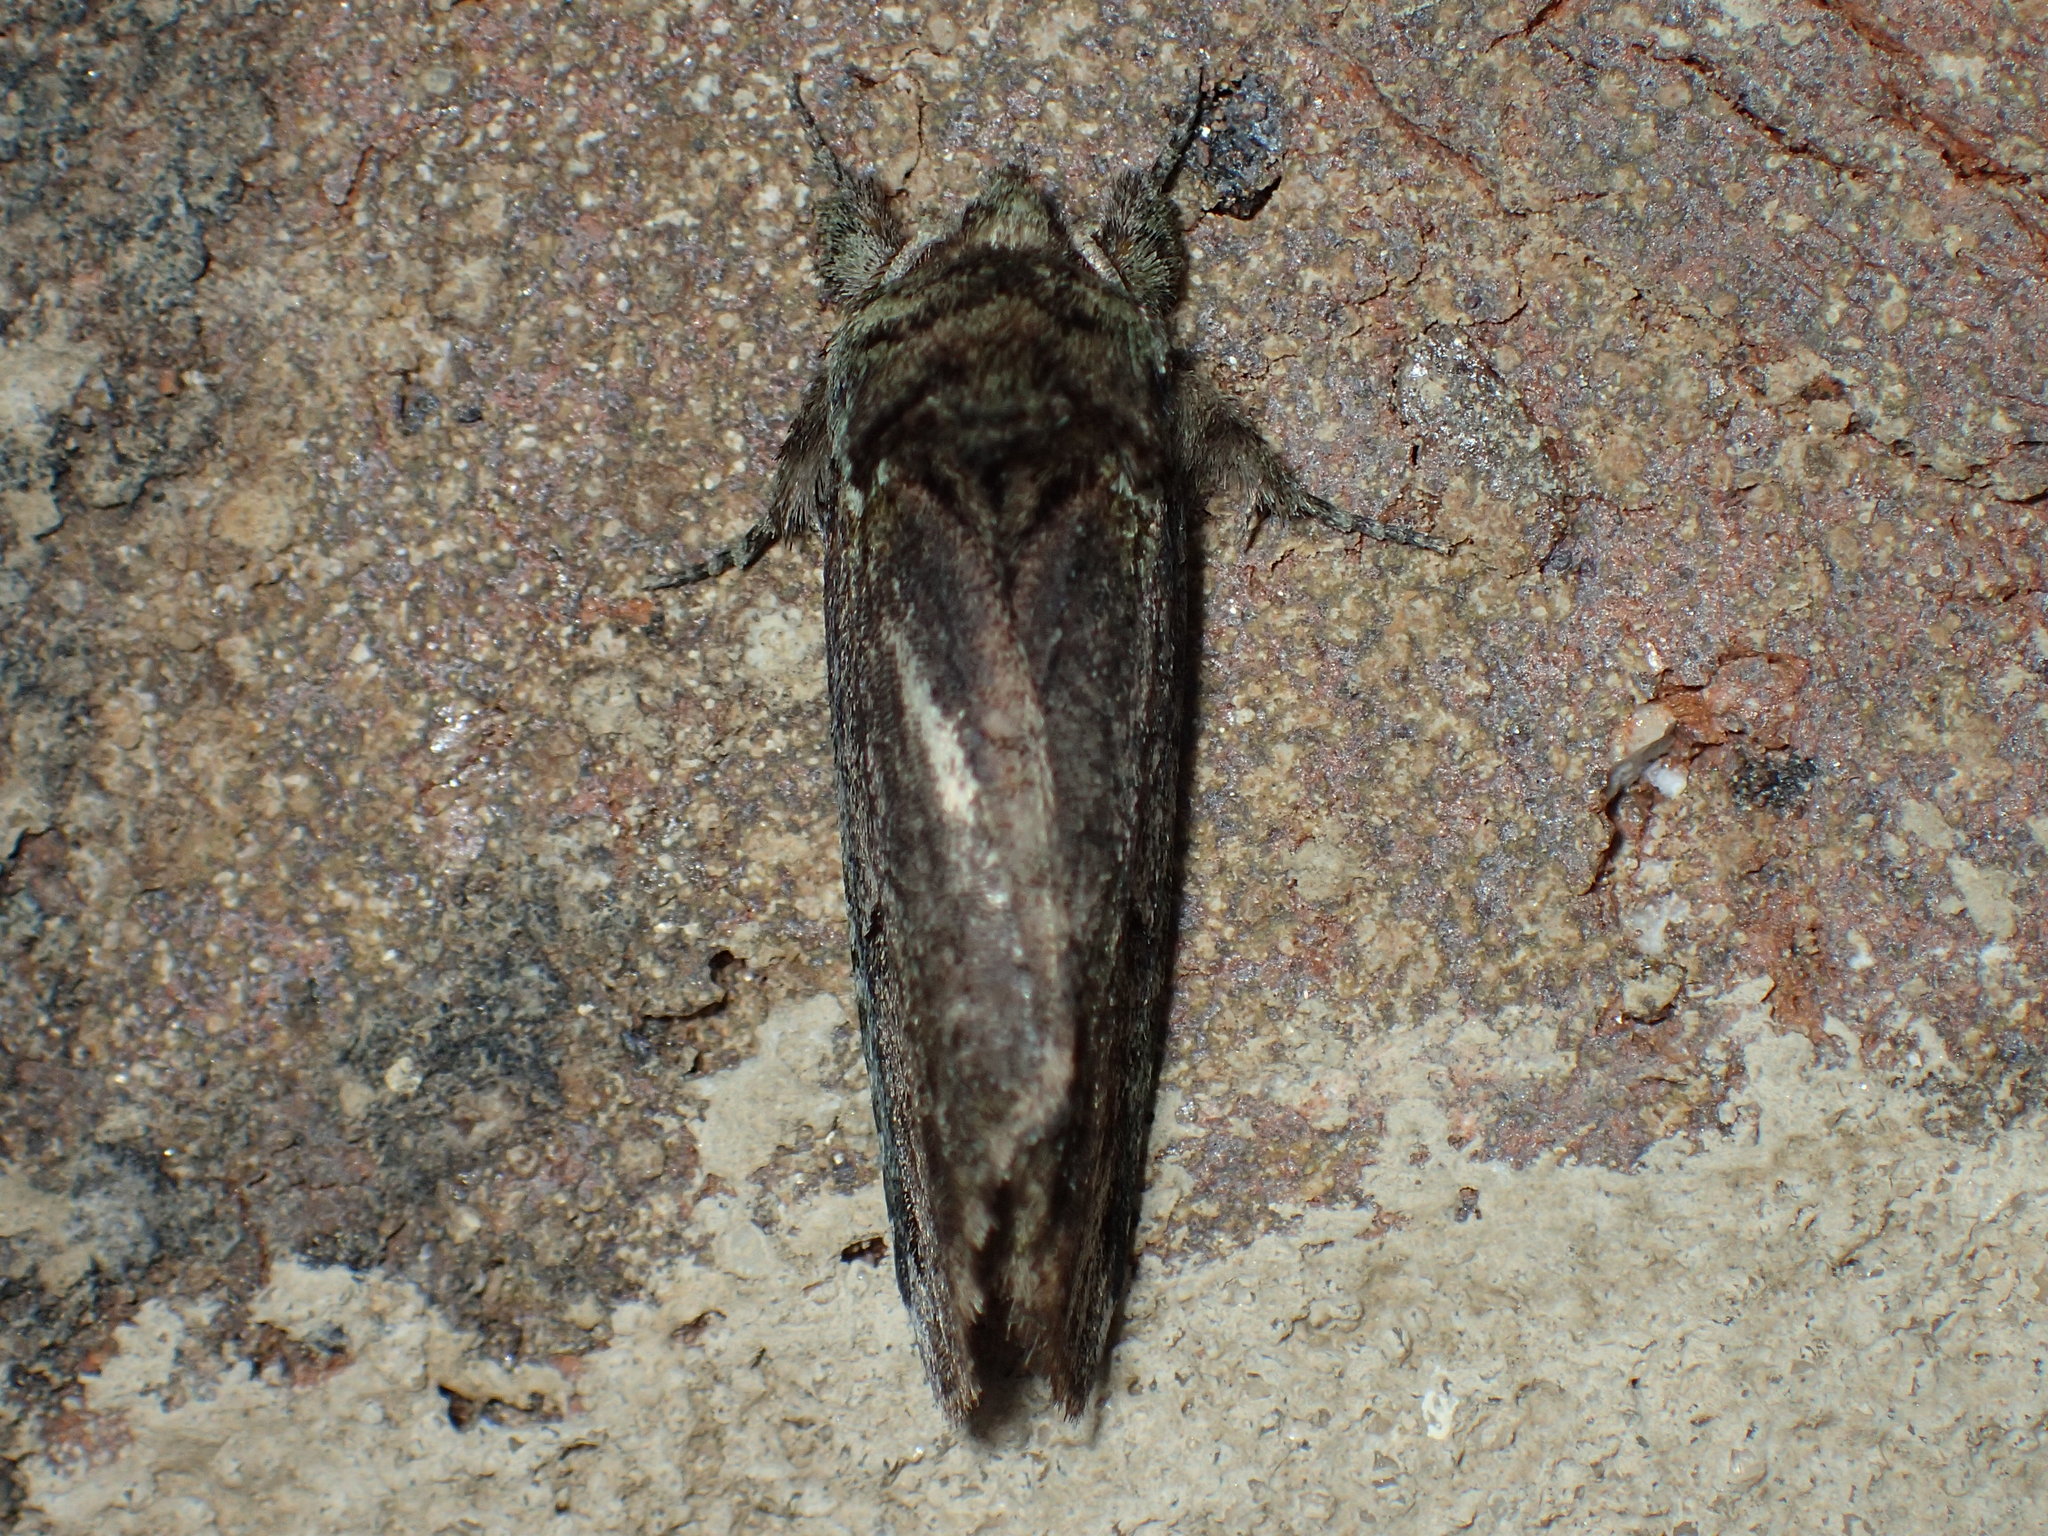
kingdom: Animalia
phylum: Arthropoda
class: Insecta
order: Lepidoptera
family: Notodontidae
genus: Schizura
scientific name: Schizura
